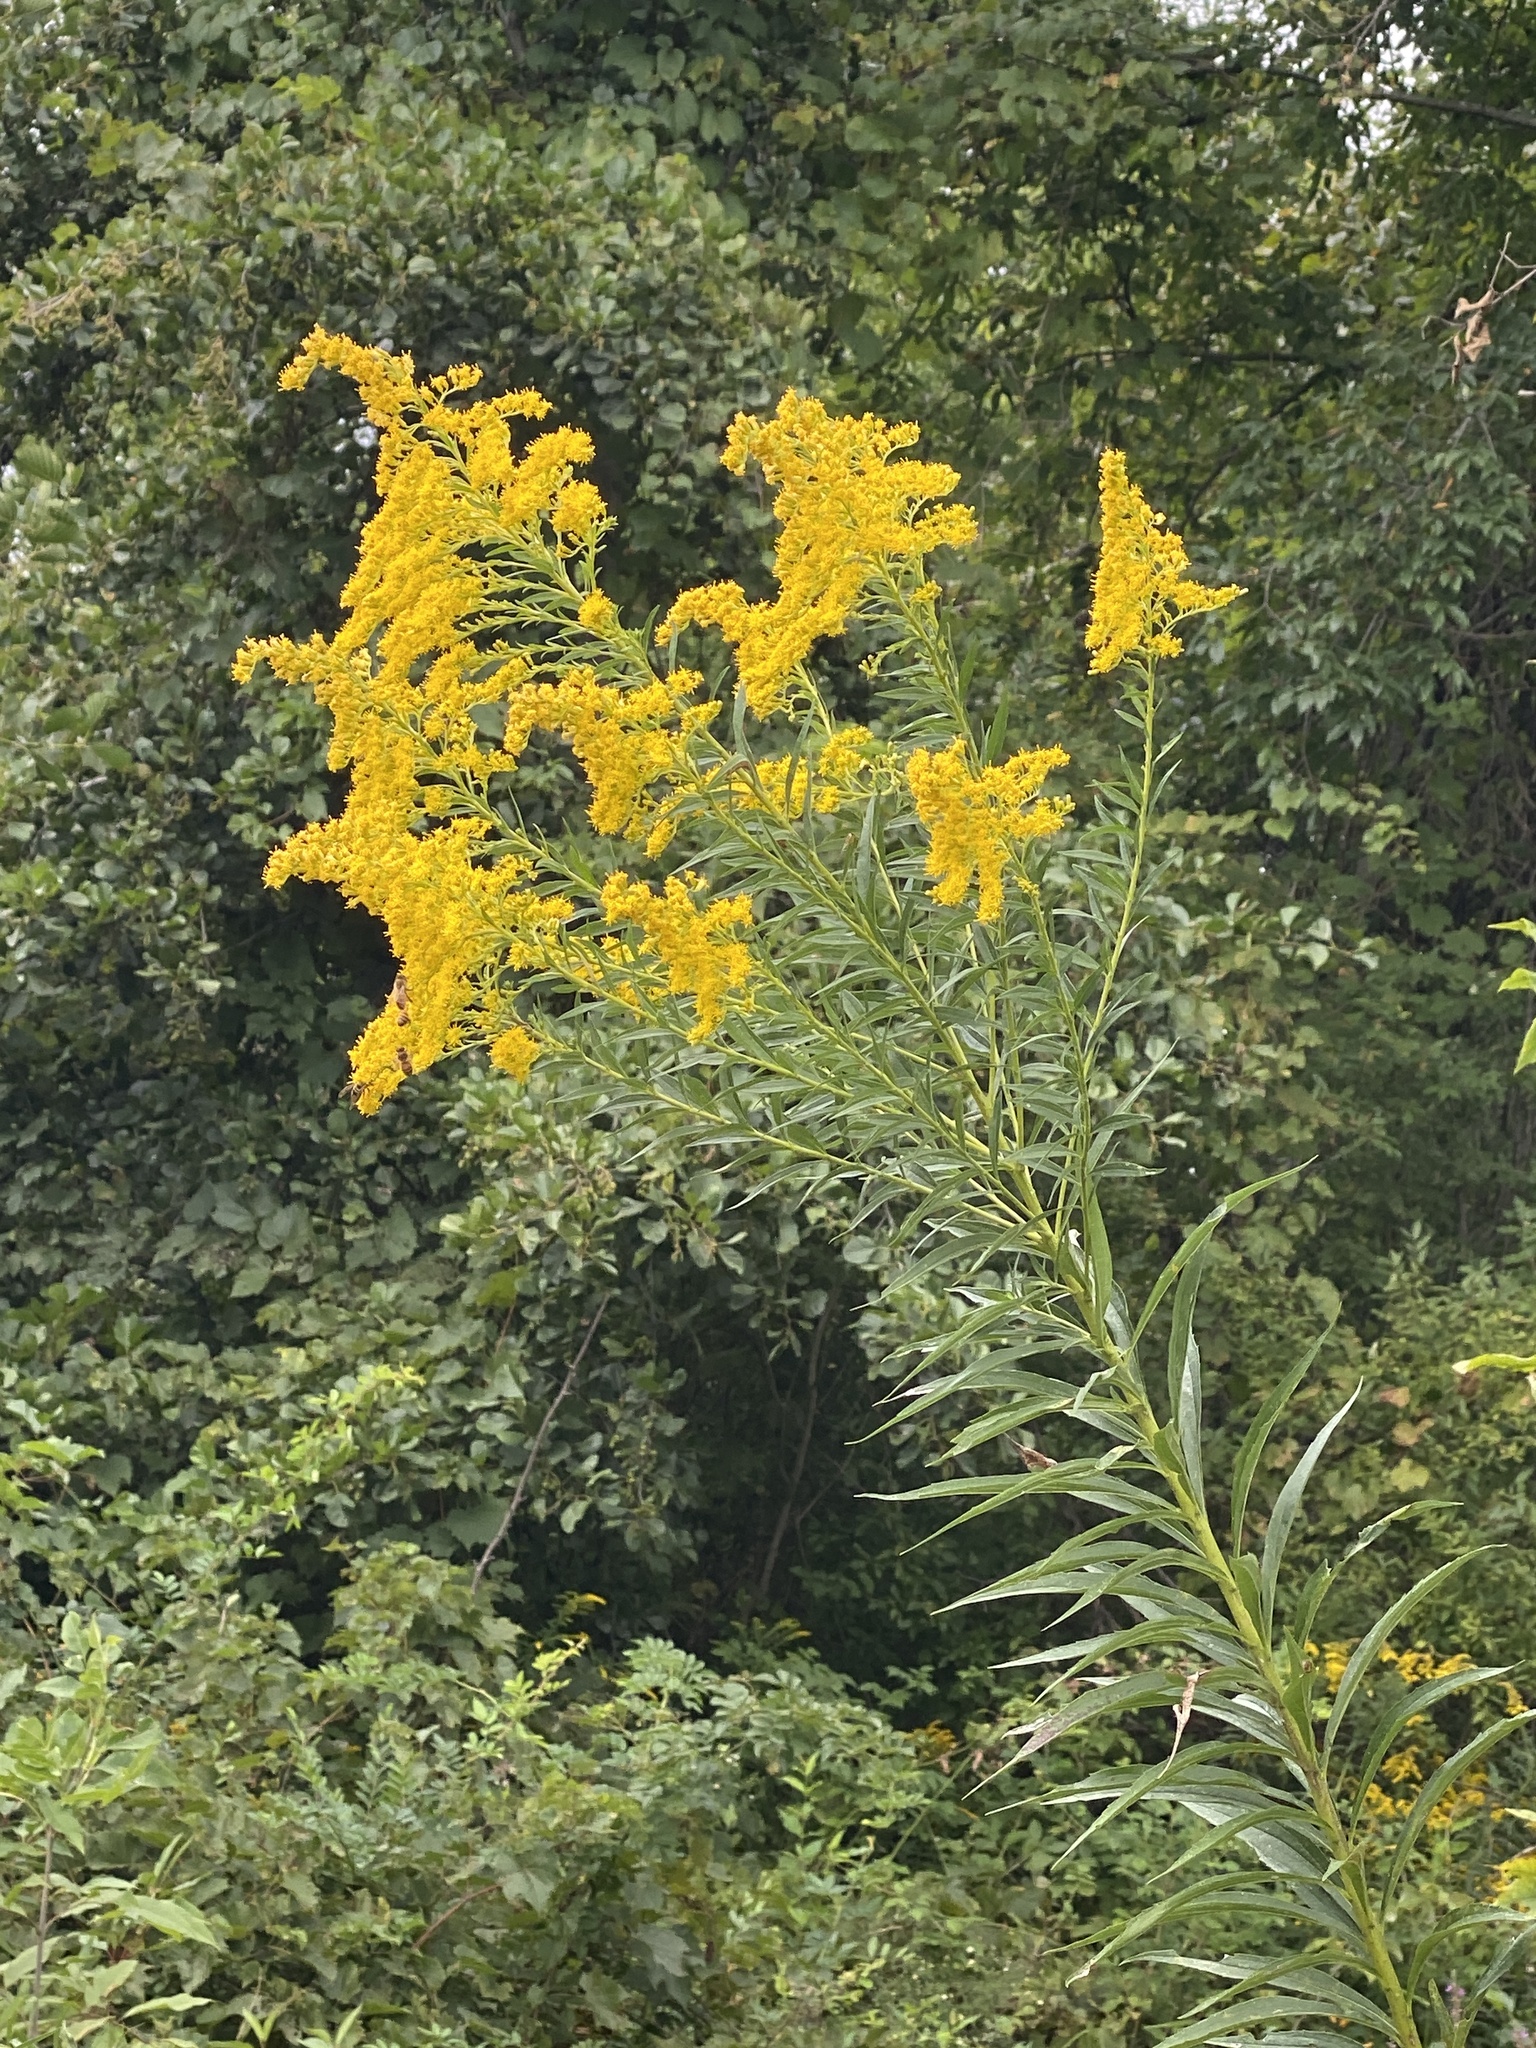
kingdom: Plantae
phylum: Tracheophyta
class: Magnoliopsida
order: Asterales
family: Asteraceae
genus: Solidago
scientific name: Solidago altissima
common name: Late goldenrod
